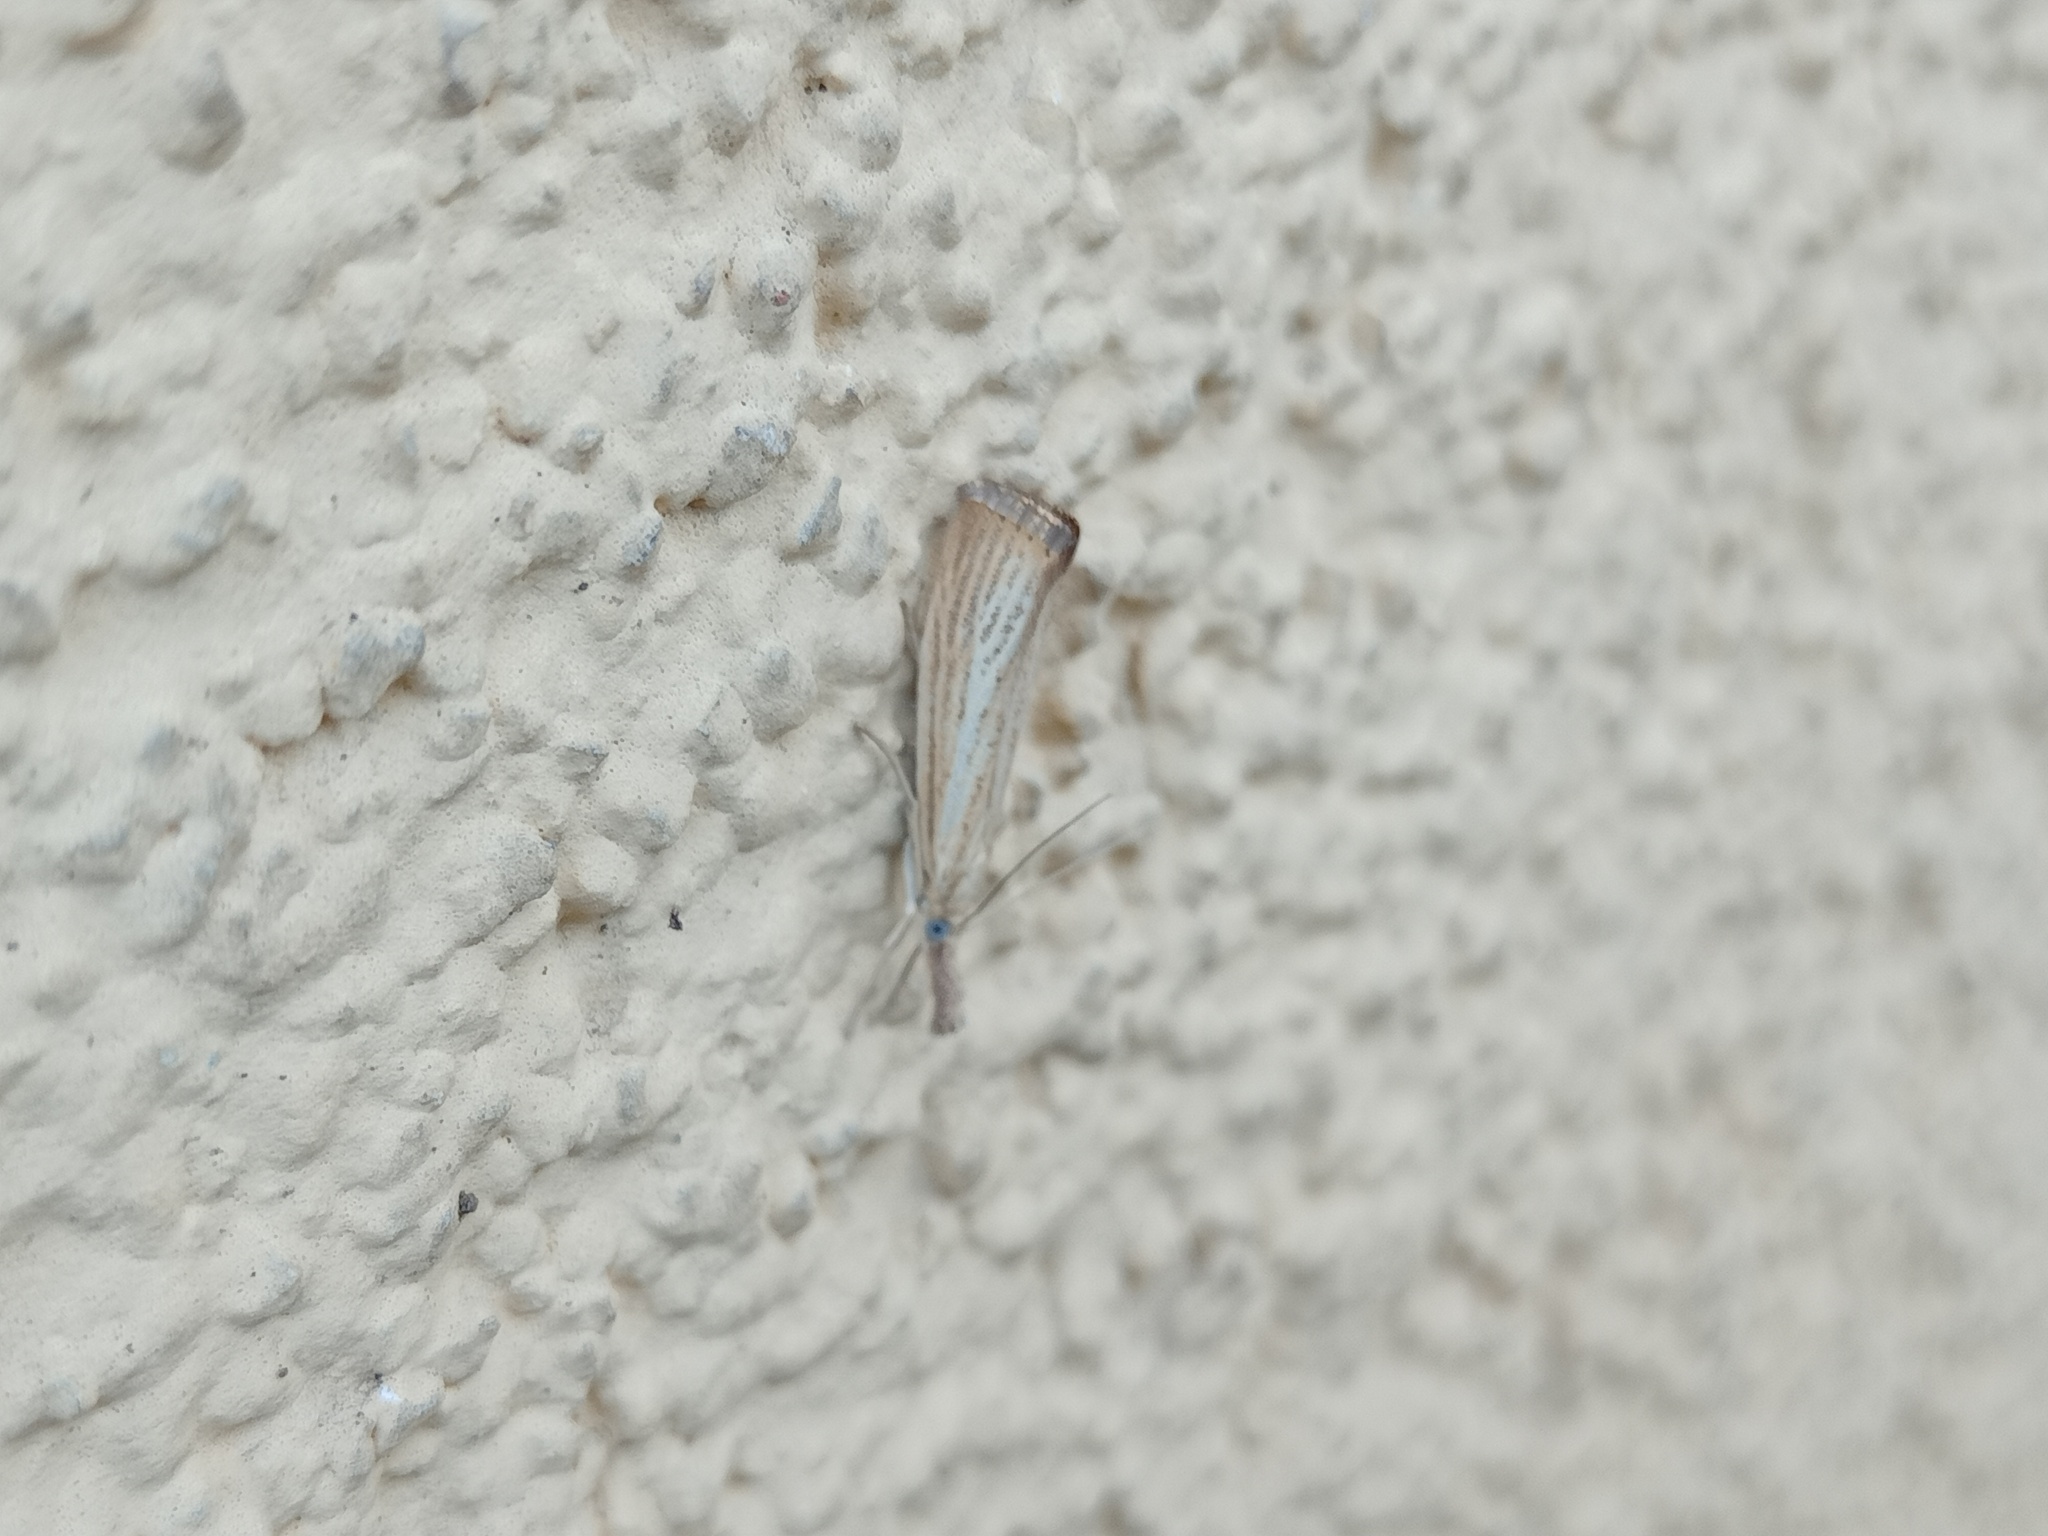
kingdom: Animalia
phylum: Arthropoda
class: Insecta
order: Lepidoptera
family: Crambidae
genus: Agriphila
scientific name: Agriphila straminella
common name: Straw grass-veneer
